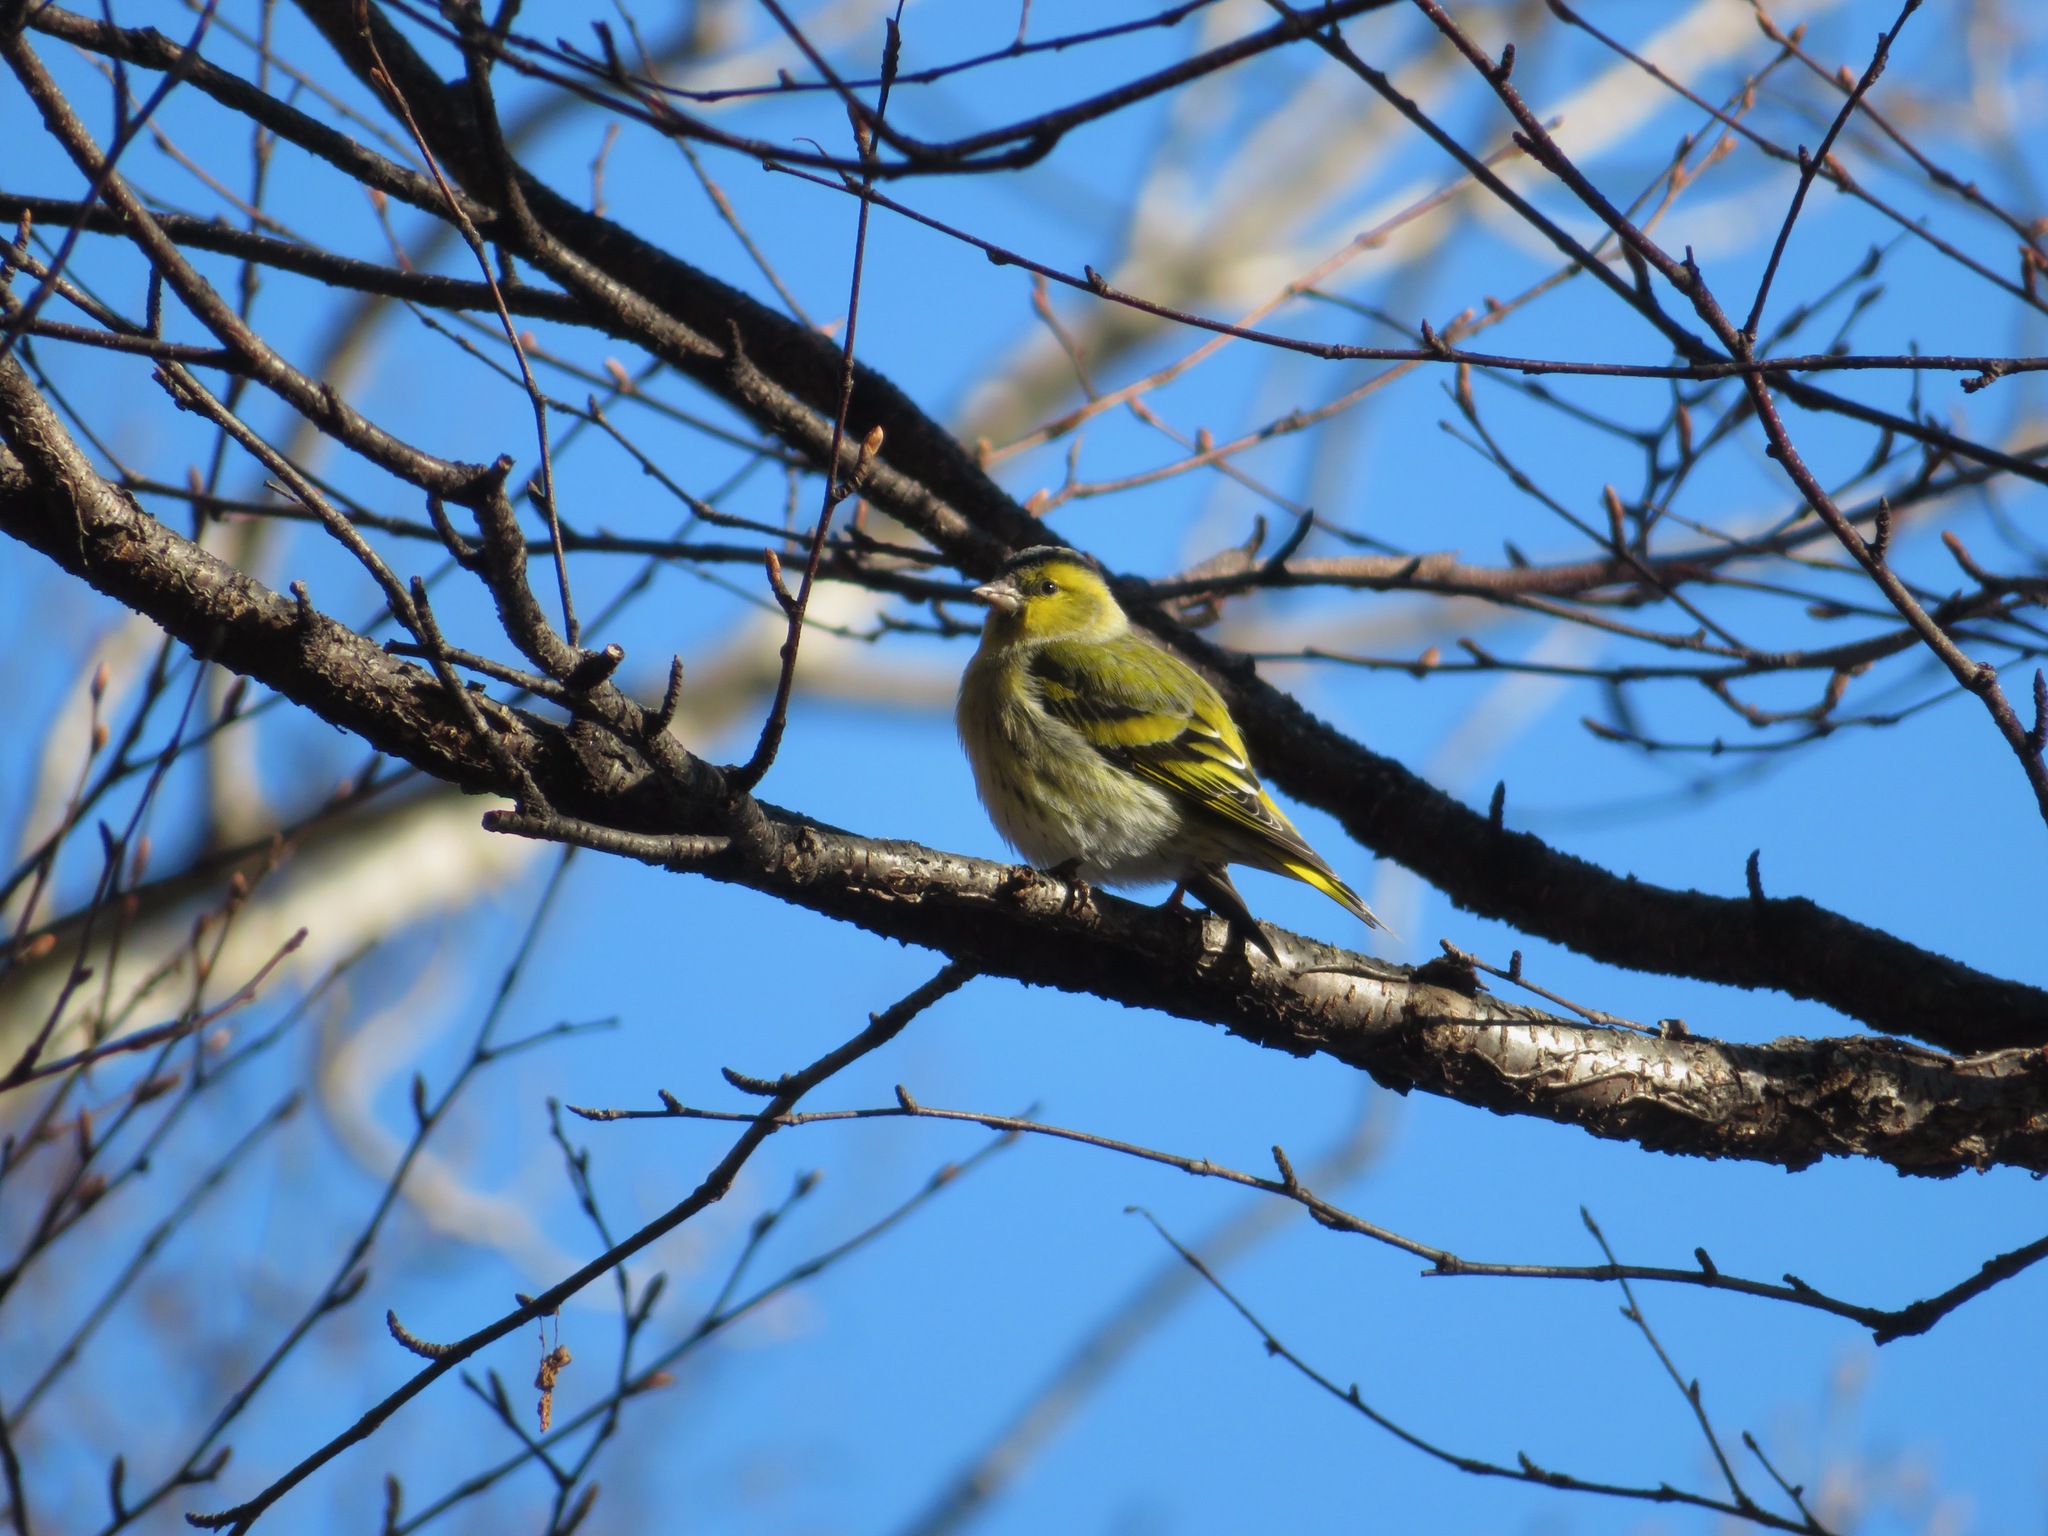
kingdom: Animalia
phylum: Chordata
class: Aves
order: Passeriformes
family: Fringillidae
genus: Spinus
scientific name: Spinus spinus
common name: Eurasian siskin
